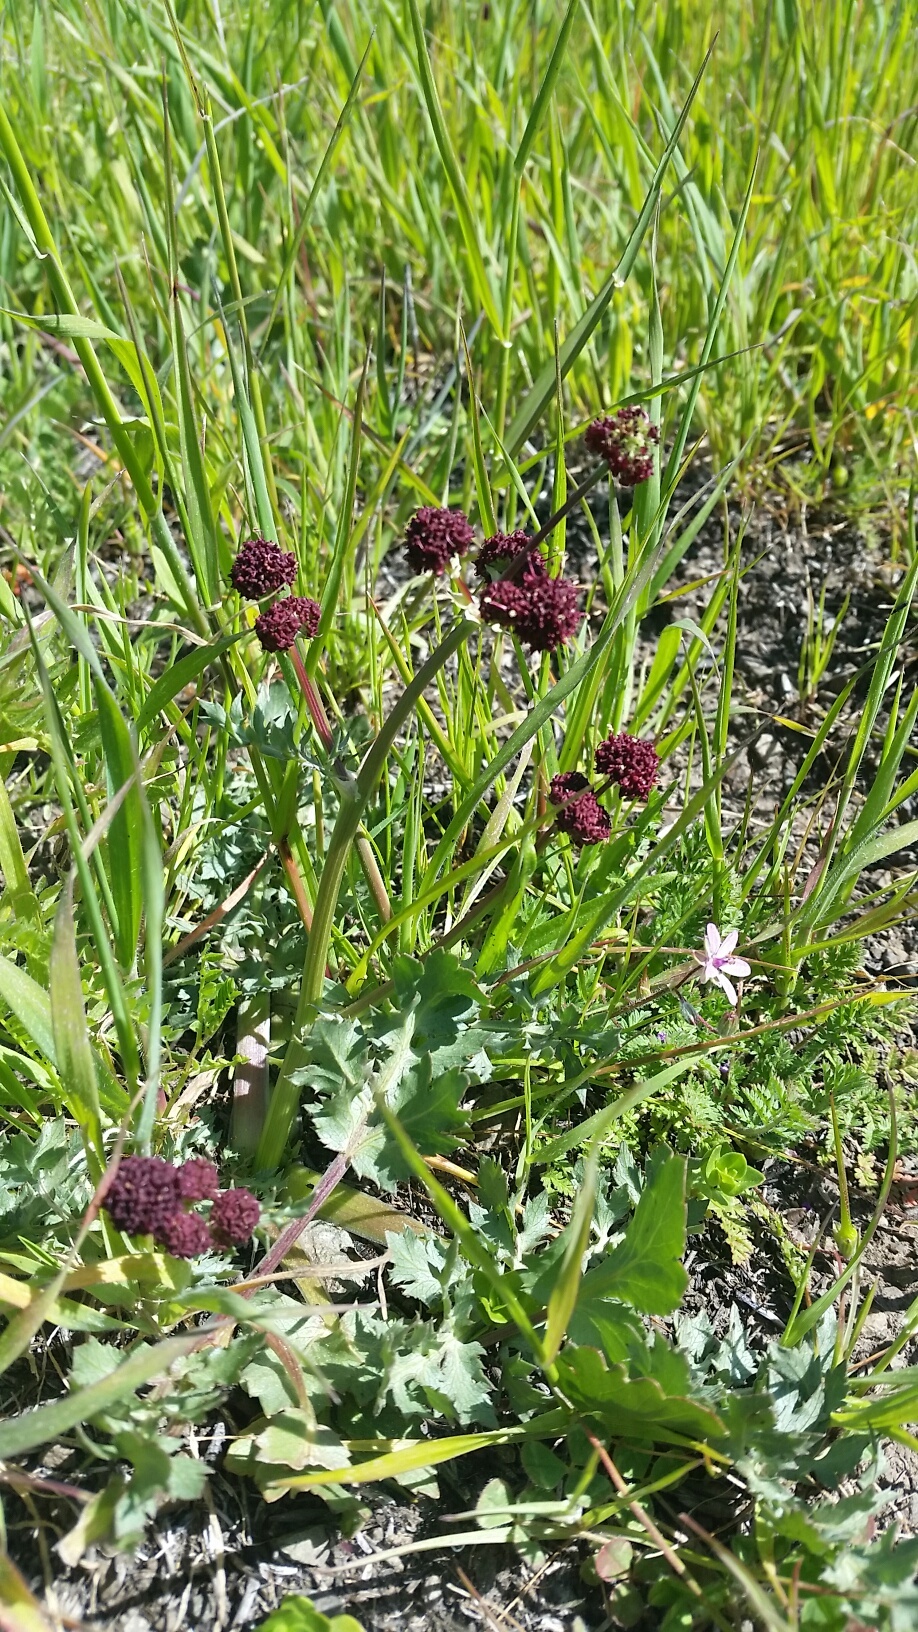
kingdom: Plantae
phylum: Tracheophyta
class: Magnoliopsida
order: Apiales
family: Apiaceae
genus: Sanicula
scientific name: Sanicula bipinnatifida
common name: Shoe-buttons
